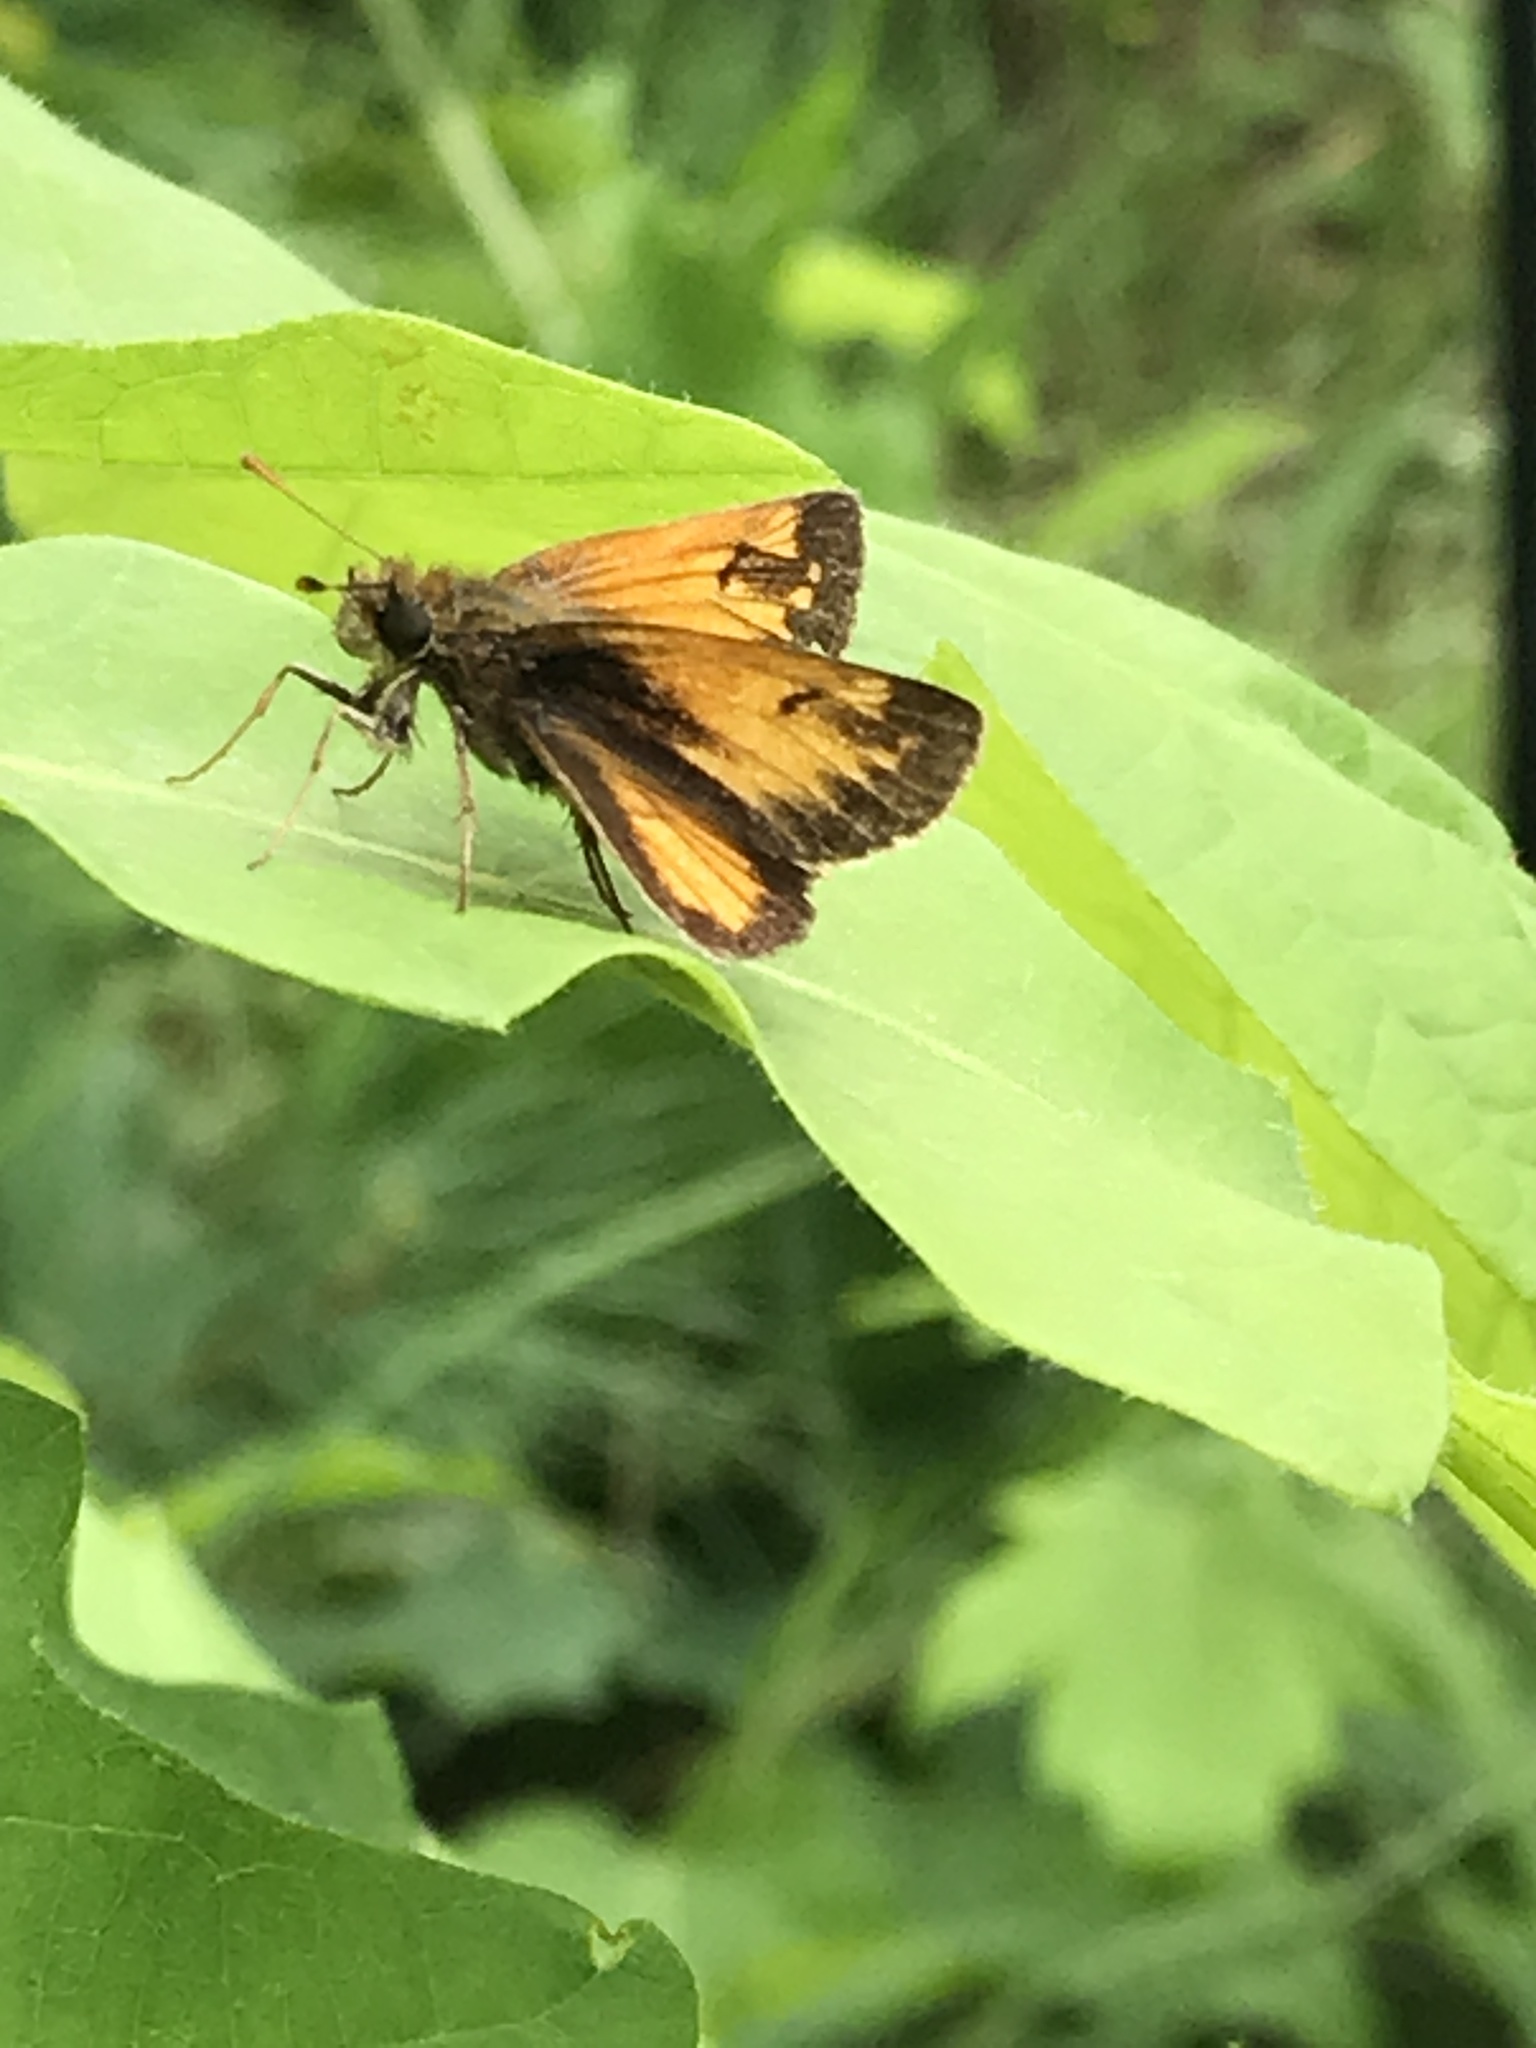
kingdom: Animalia
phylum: Arthropoda
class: Insecta
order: Lepidoptera
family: Hesperiidae
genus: Lon
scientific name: Lon hobomok
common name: Hobomok skipper
